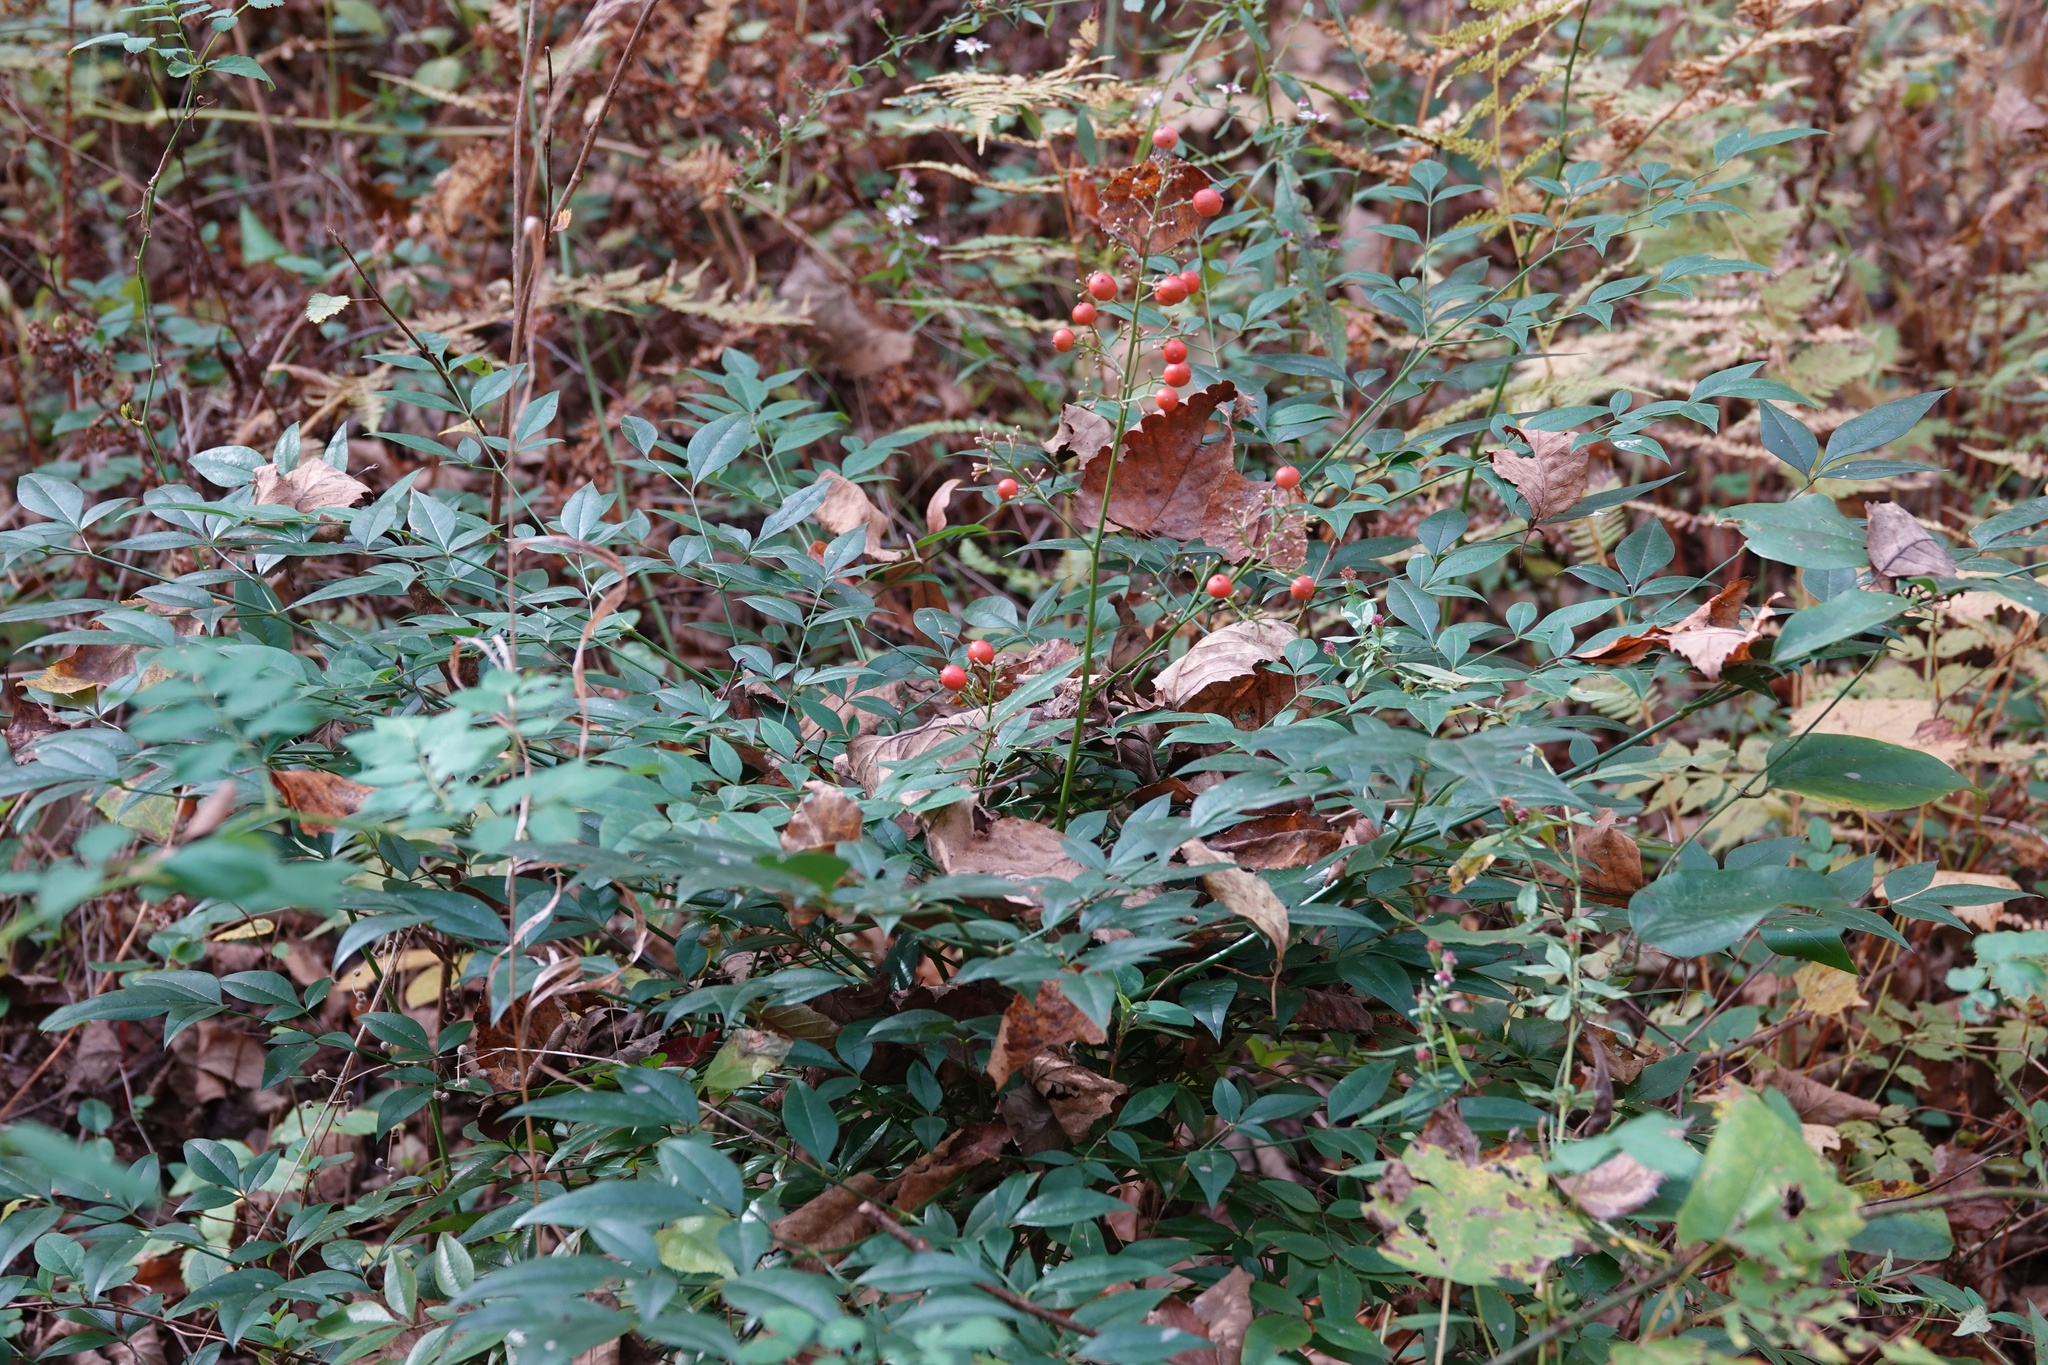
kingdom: Plantae
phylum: Tracheophyta
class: Magnoliopsida
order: Ranunculales
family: Berberidaceae
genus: Nandina
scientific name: Nandina domestica
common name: Sacred bamboo
